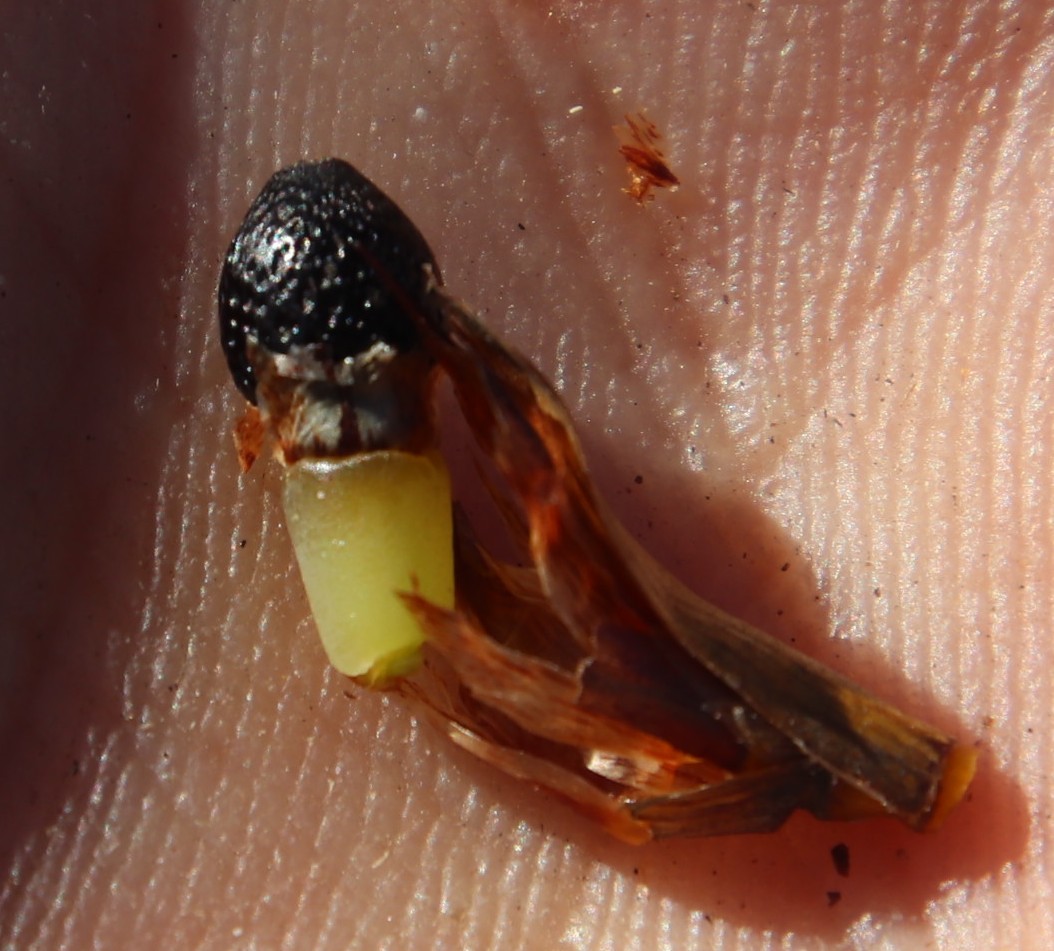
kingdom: Plantae
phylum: Tracheophyta
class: Liliopsida
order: Poales
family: Restionaceae
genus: Willdenowia
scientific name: Willdenowia sulcata
